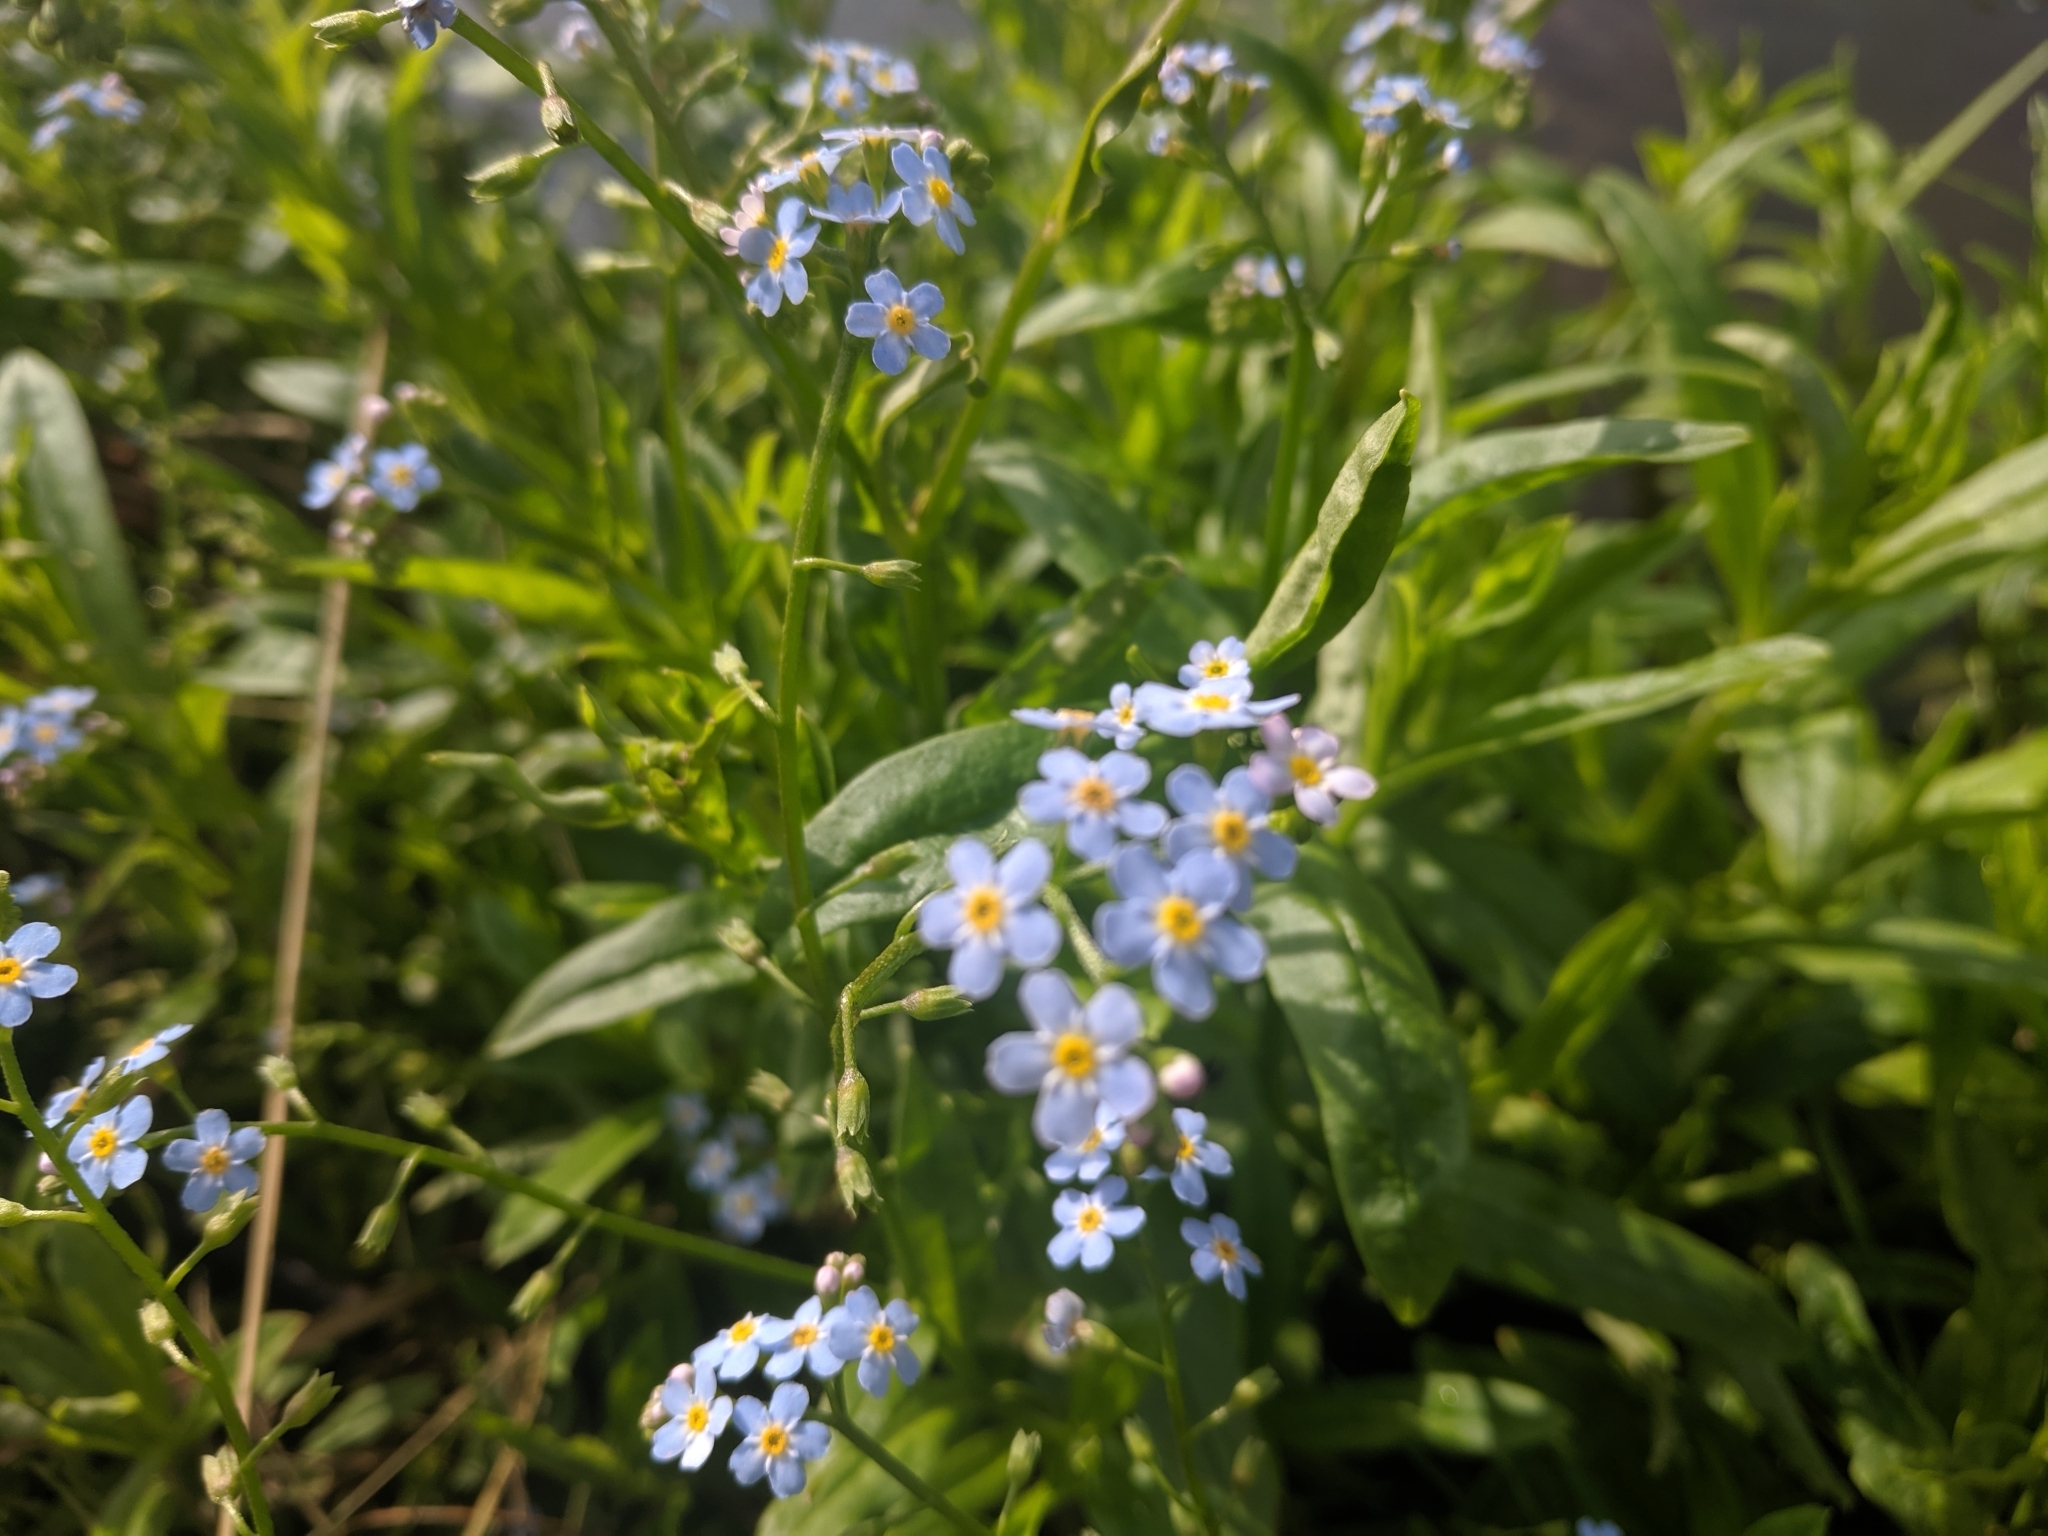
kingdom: Plantae
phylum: Tracheophyta
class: Magnoliopsida
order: Boraginales
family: Boraginaceae
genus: Myosotis
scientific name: Myosotis scorpioides
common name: Water forget-me-not
